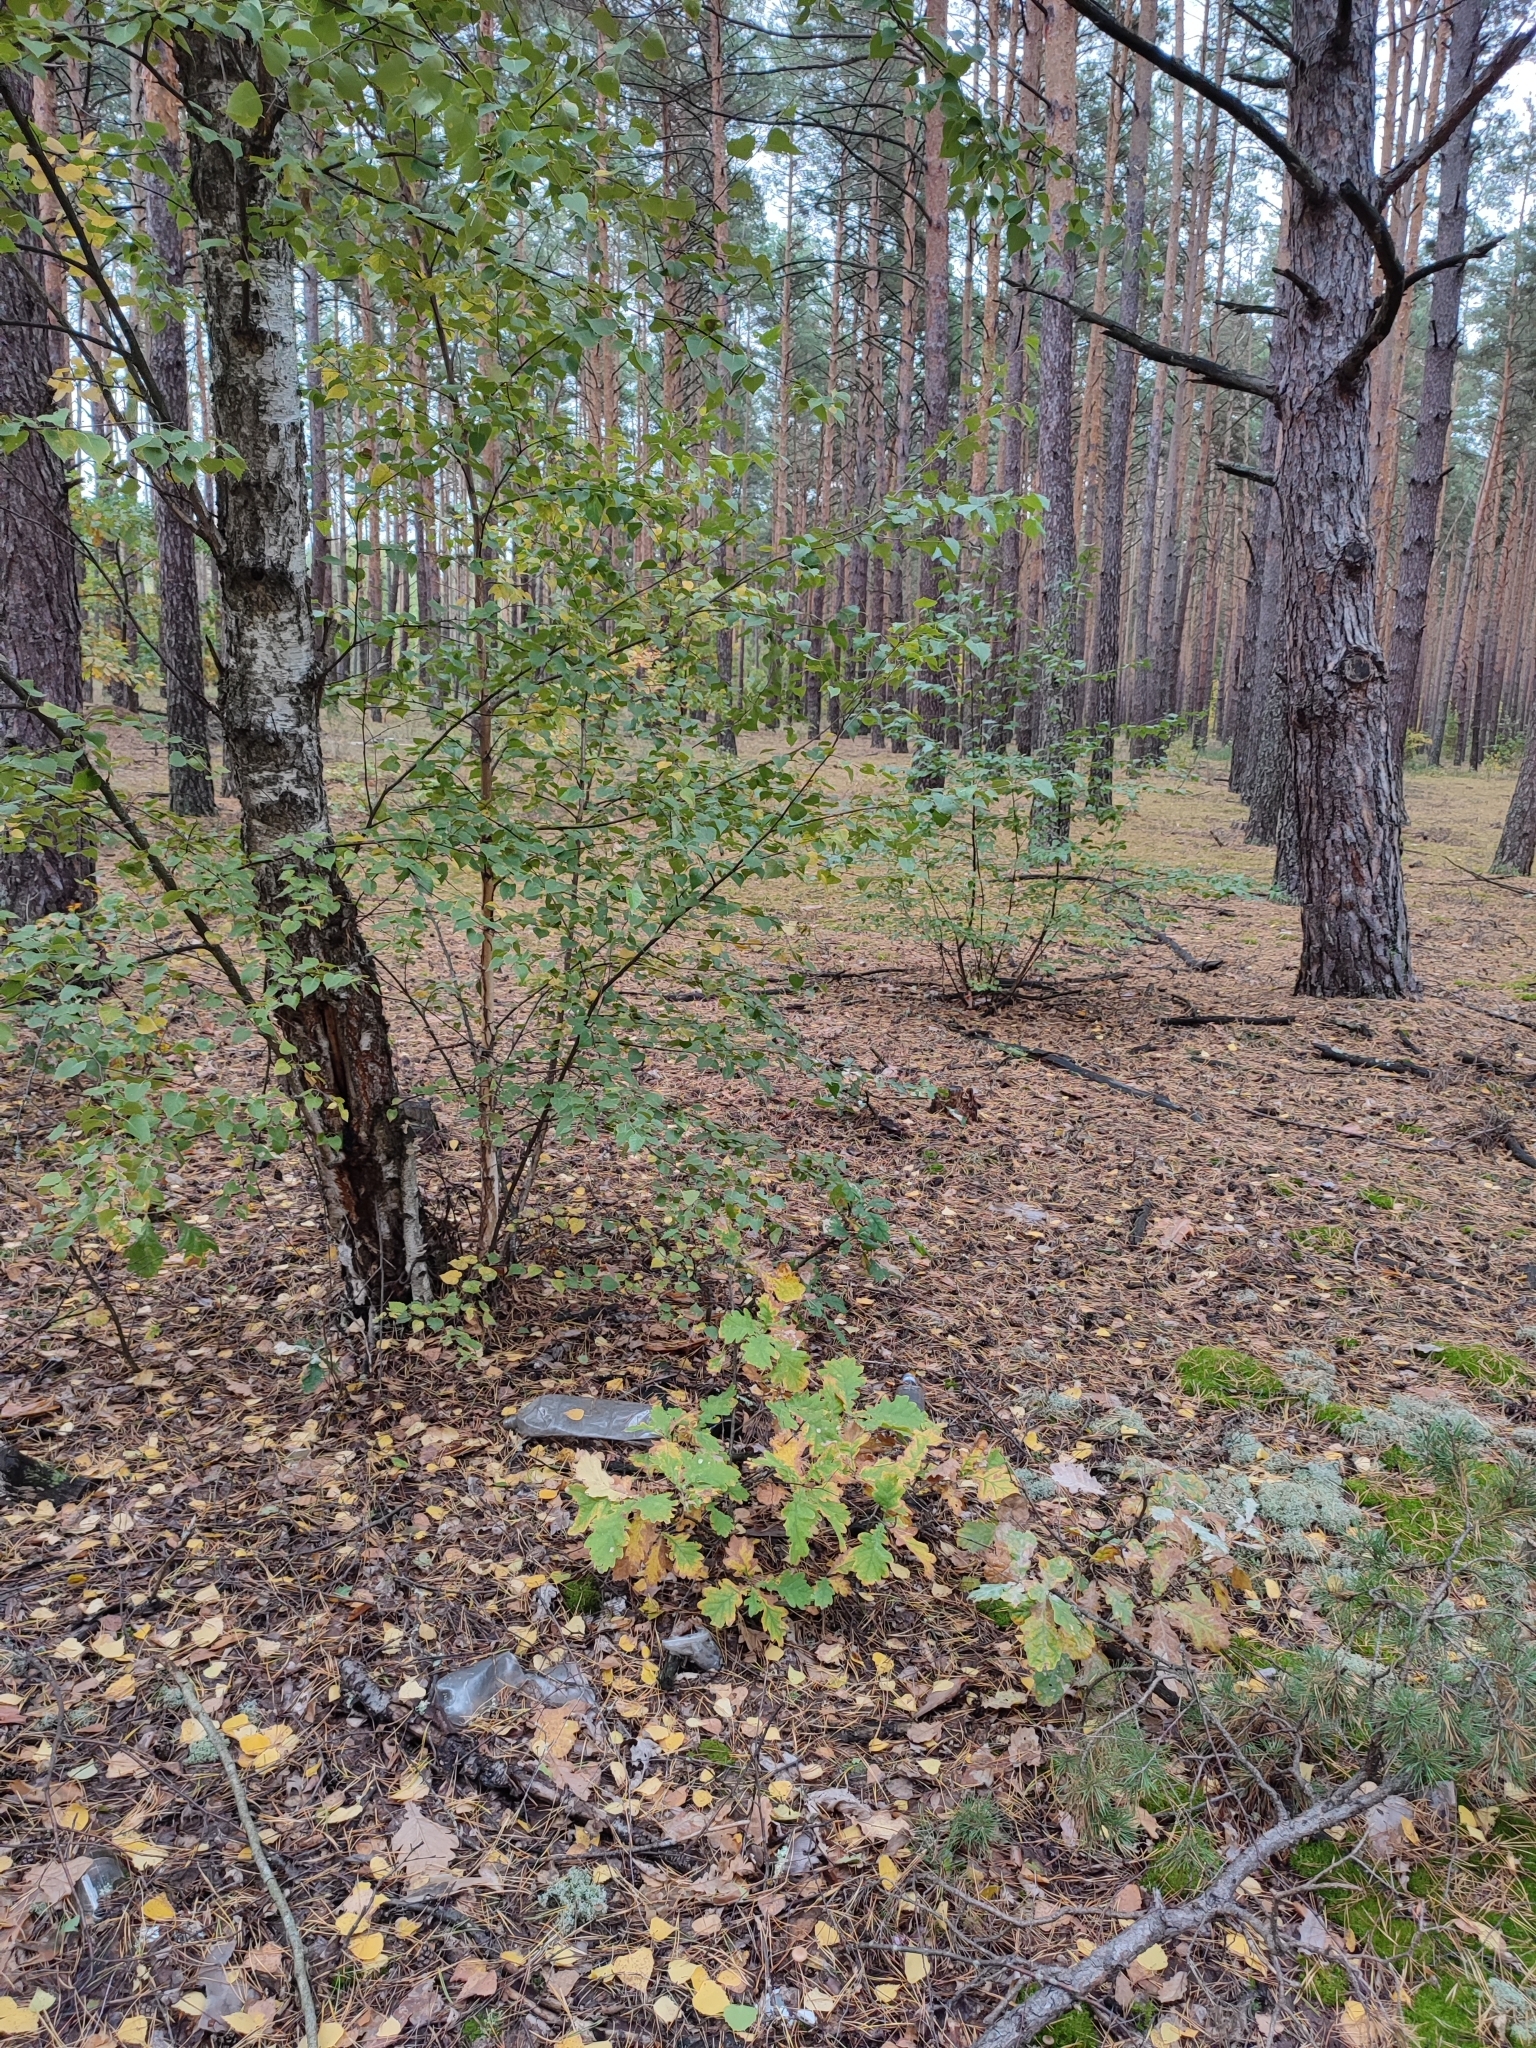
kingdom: Plantae
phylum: Tracheophyta
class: Magnoliopsida
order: Fagales
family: Fagaceae
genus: Quercus
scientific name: Quercus robur
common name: Pedunculate oak
